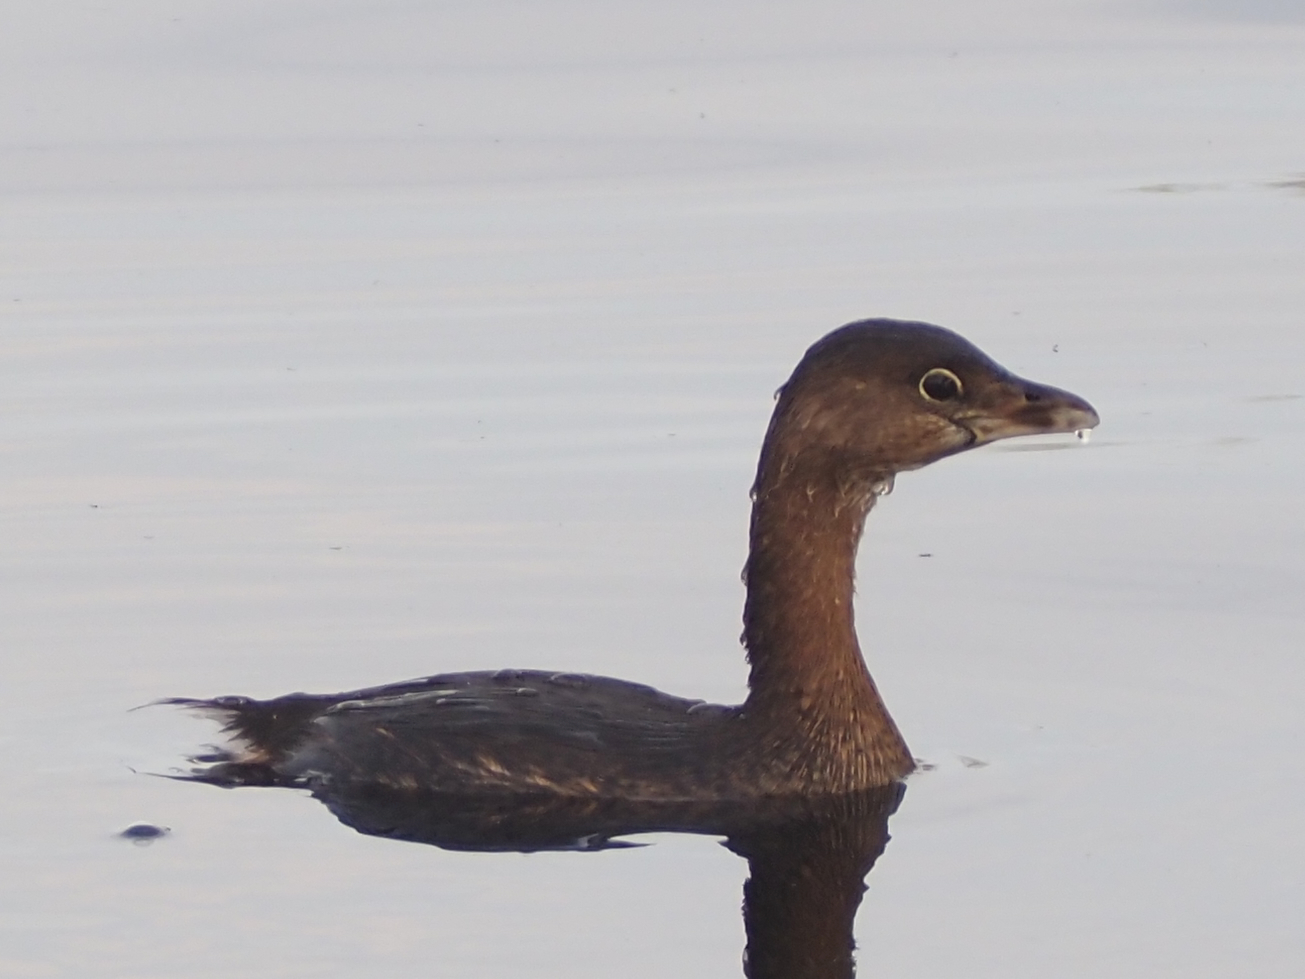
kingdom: Animalia
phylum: Chordata
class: Aves
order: Podicipediformes
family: Podicipedidae
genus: Podilymbus
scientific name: Podilymbus podiceps
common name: Pied-billed grebe
